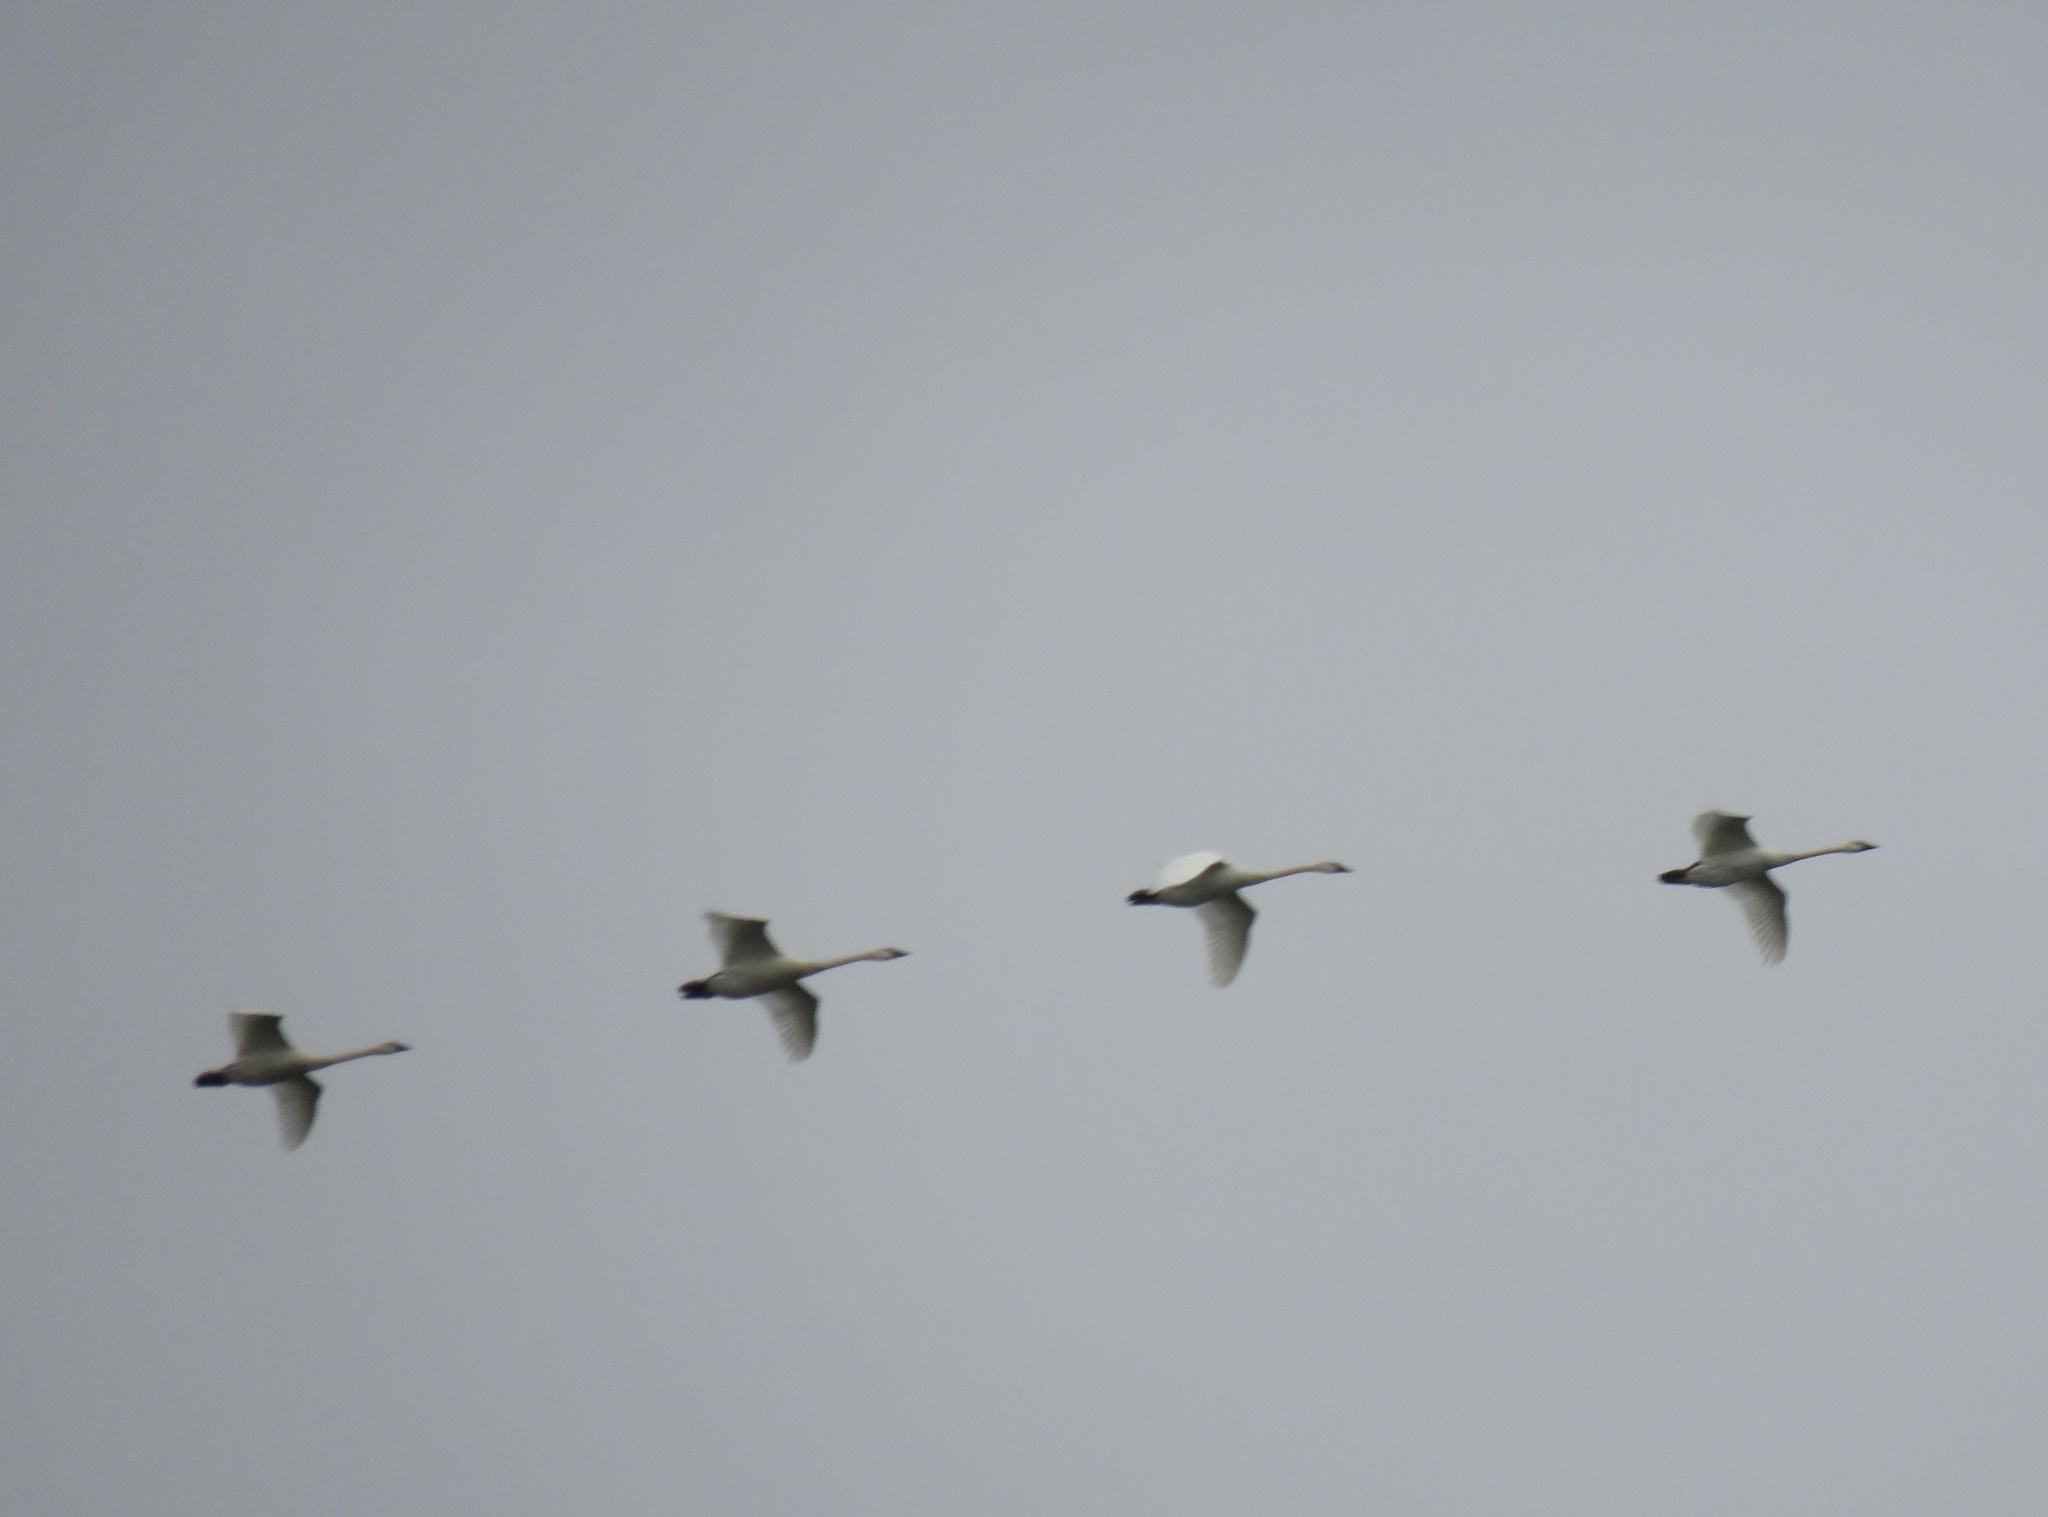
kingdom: Animalia
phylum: Chordata
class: Aves
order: Anseriformes
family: Anatidae
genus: Cygnus
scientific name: Cygnus buccinator
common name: Trumpeter swan
